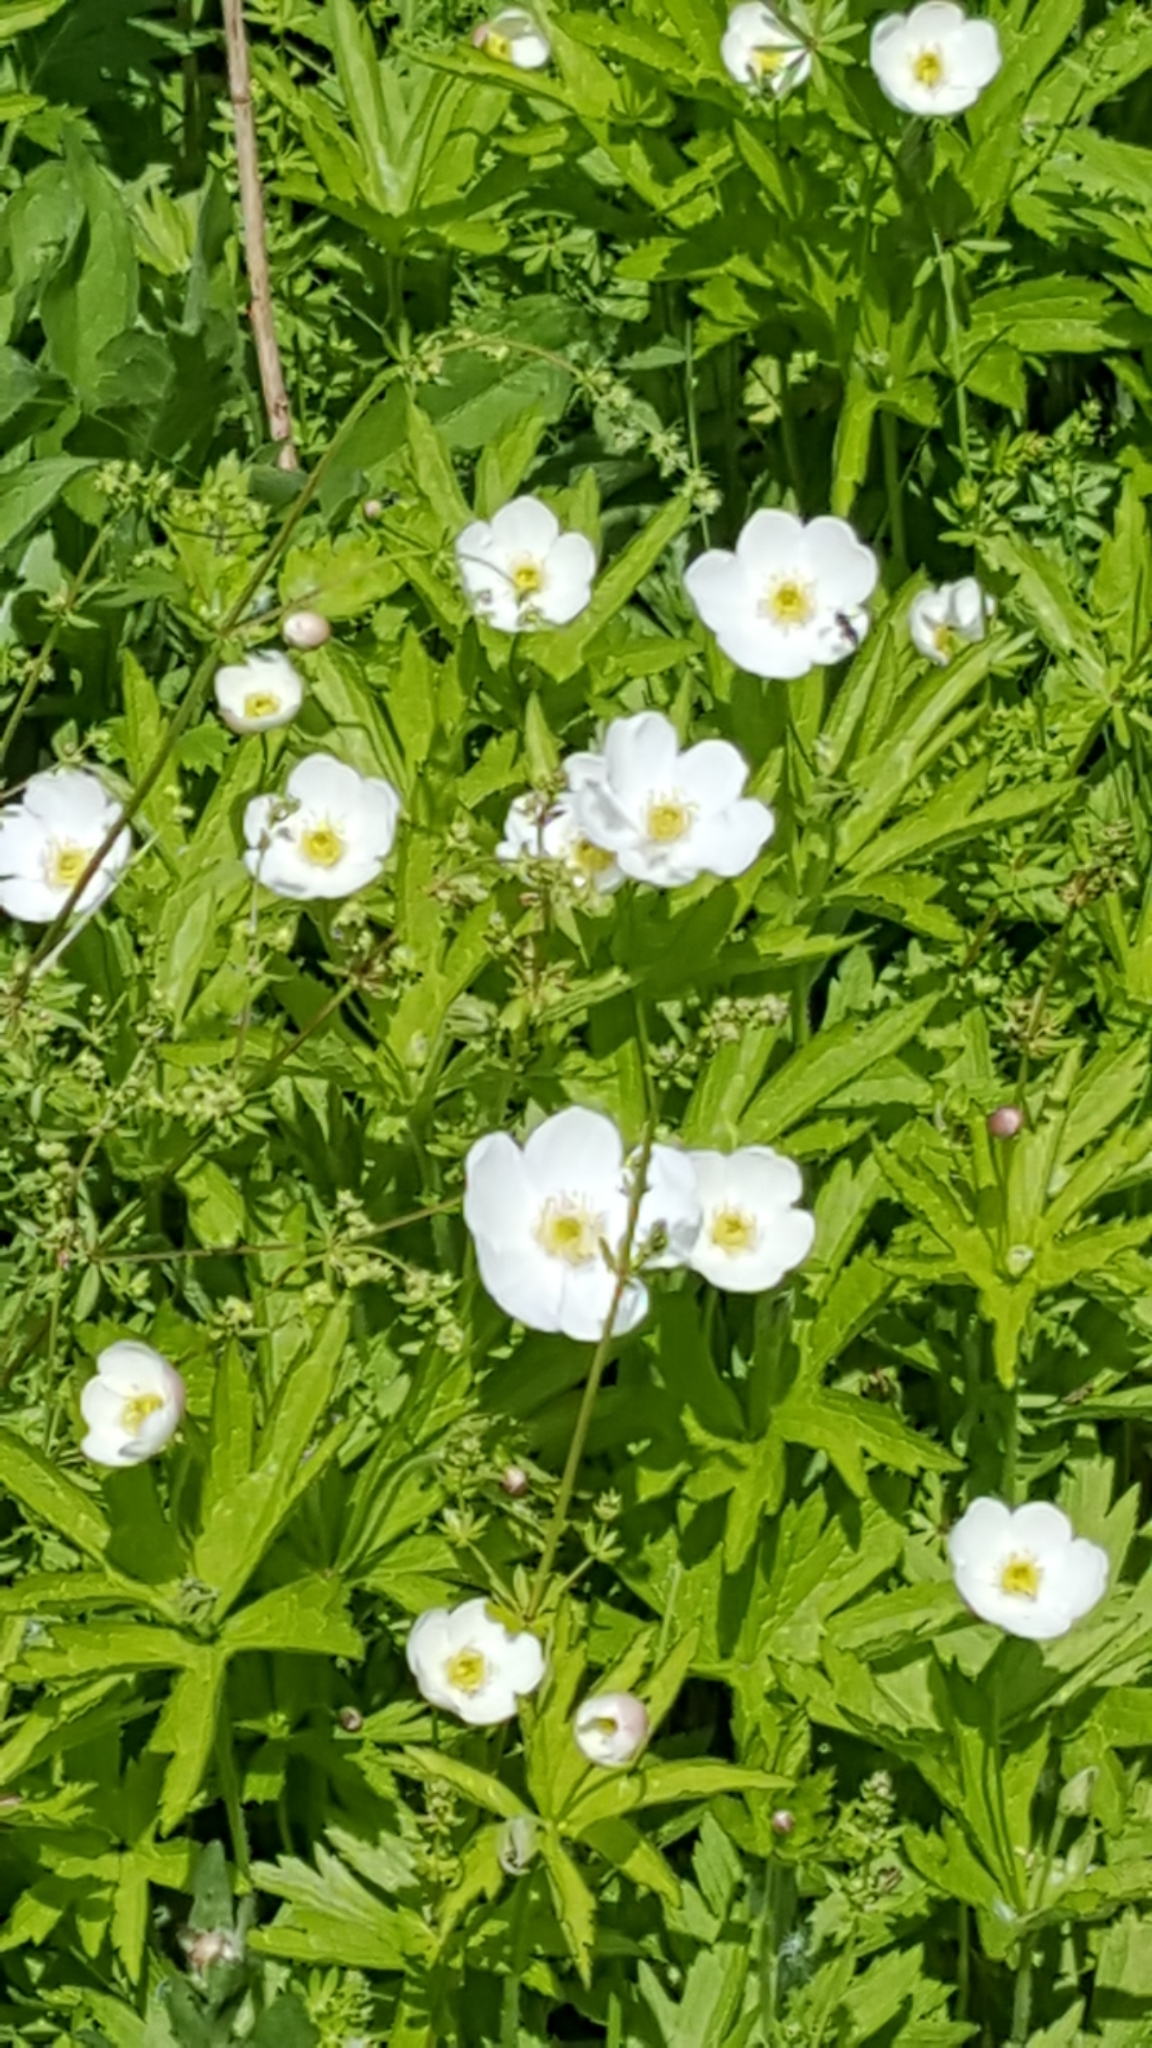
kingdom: Plantae
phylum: Tracheophyta
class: Magnoliopsida
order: Ranunculales
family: Ranunculaceae
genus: Anemonastrum
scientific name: Anemonastrum canadense
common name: Canada anemone
